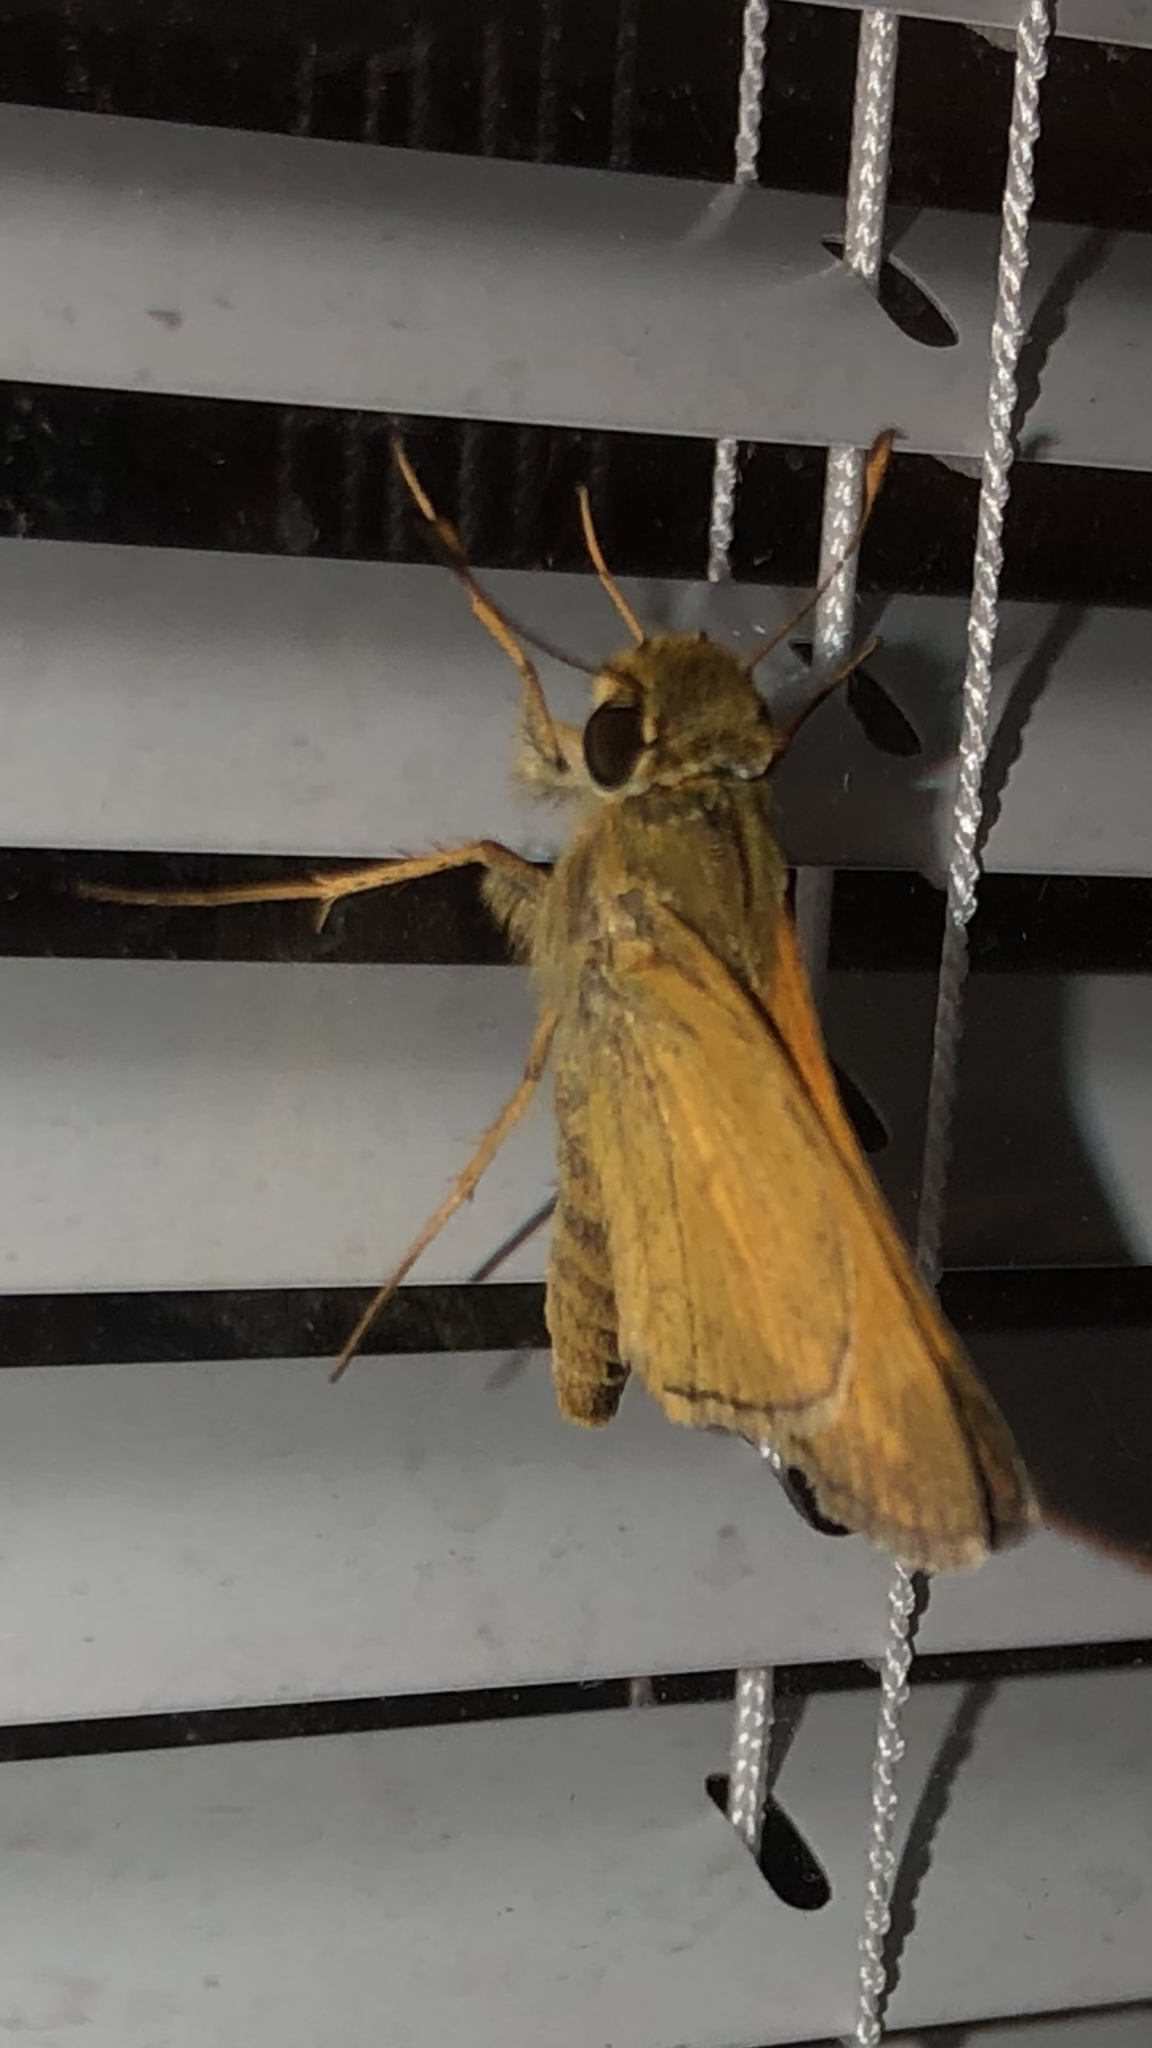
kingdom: Animalia
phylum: Arthropoda
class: Insecta
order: Lepidoptera
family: Hesperiidae
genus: Atalopedes
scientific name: Atalopedes
